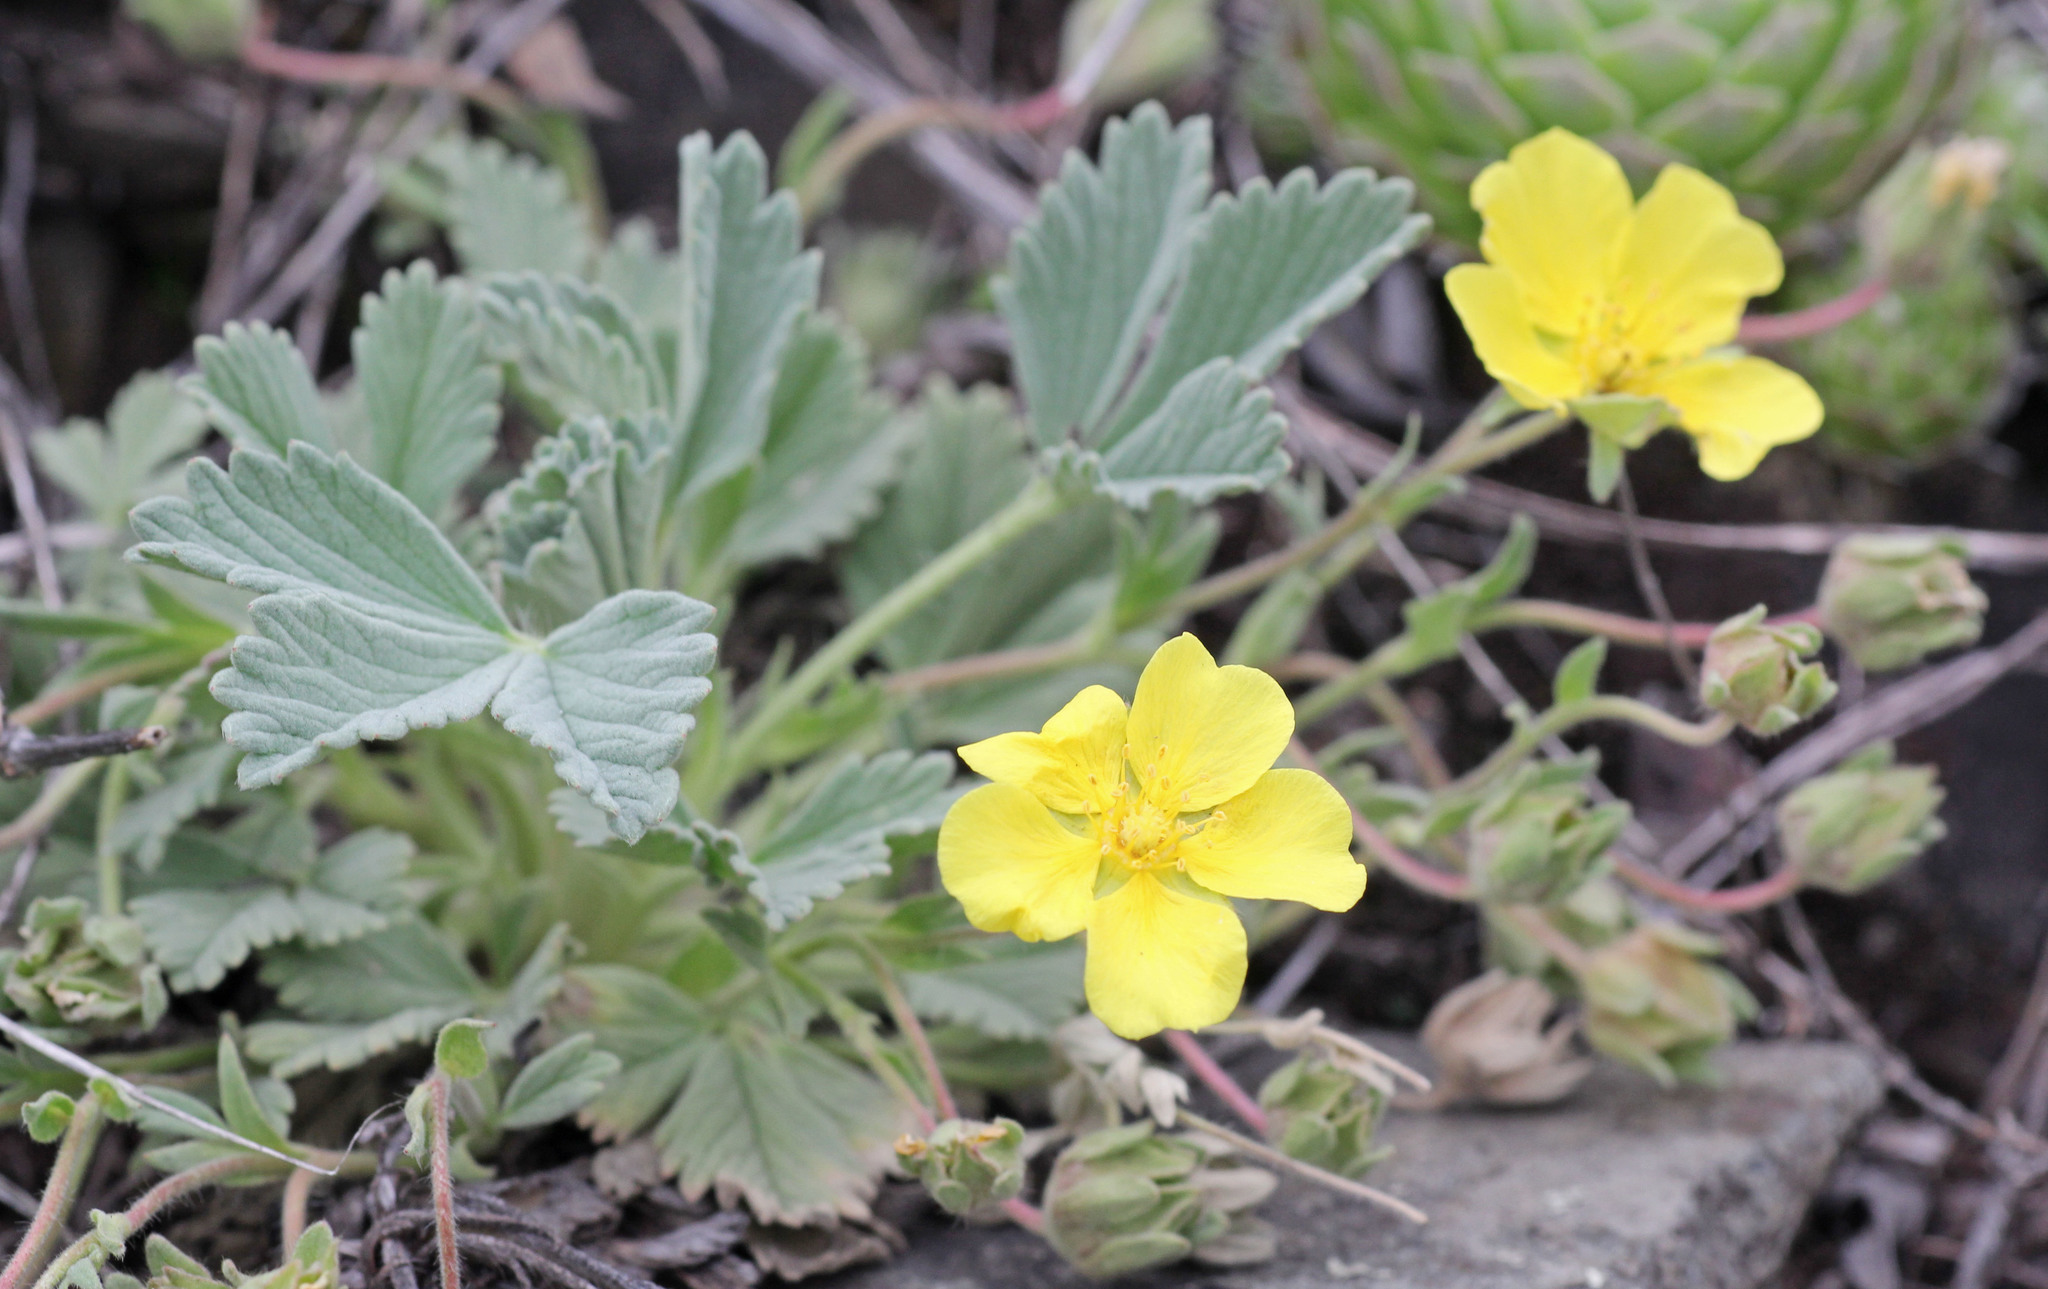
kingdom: Plantae
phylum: Tracheophyta
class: Magnoliopsida
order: Rosales
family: Rosaceae
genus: Potentilla
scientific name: Potentilla acaulis
